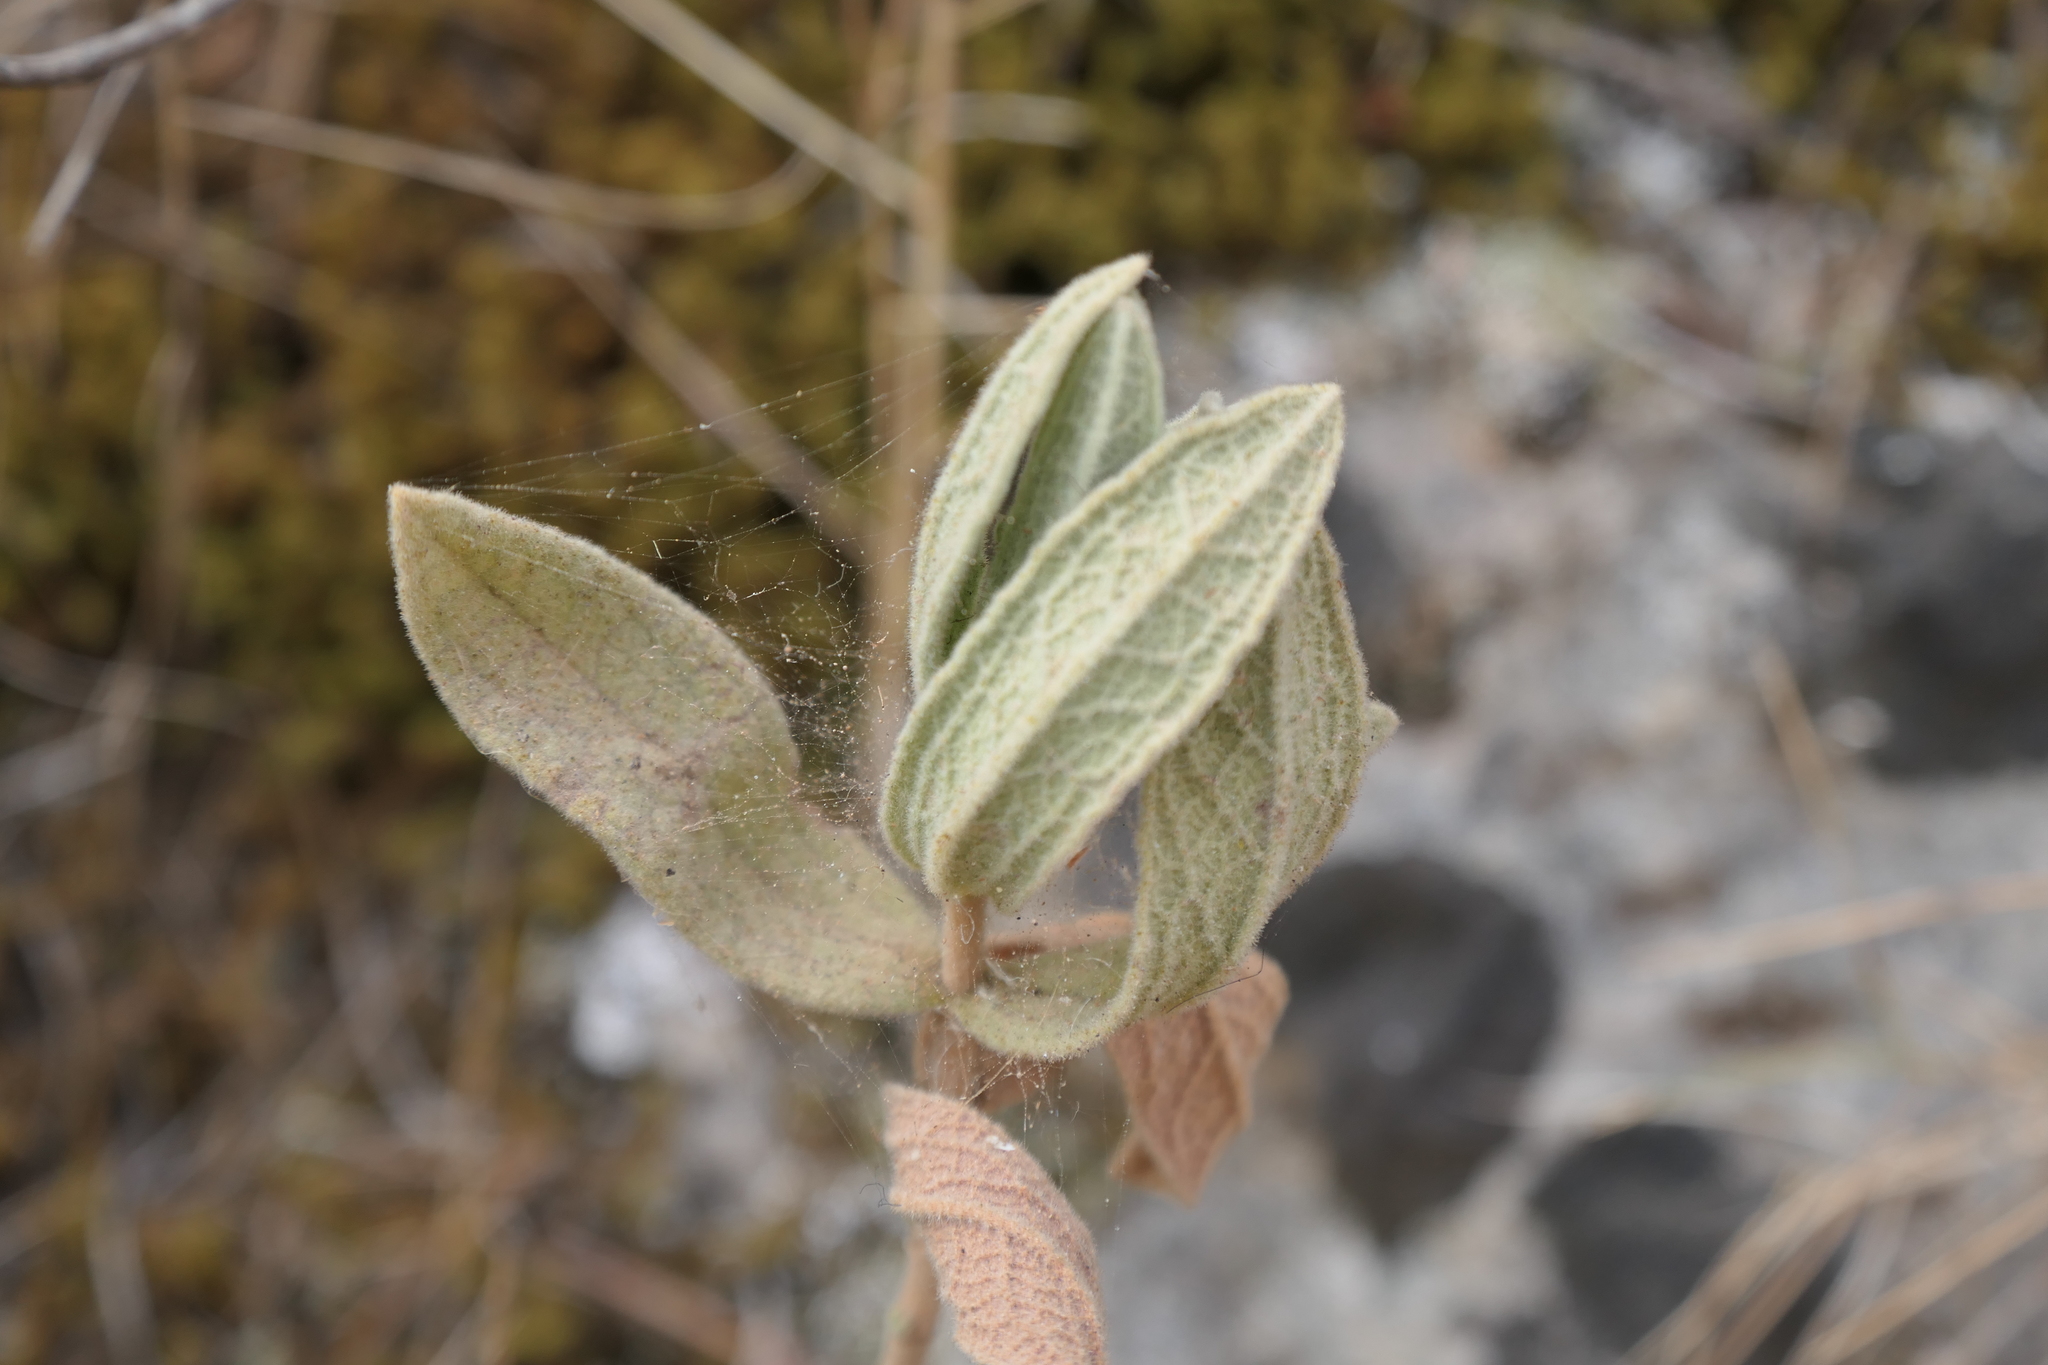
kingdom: Plantae
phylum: Tracheophyta
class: Magnoliopsida
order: Malvales
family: Cistaceae
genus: Cistus
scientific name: Cistus albidus
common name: White-leaf rock-rose
